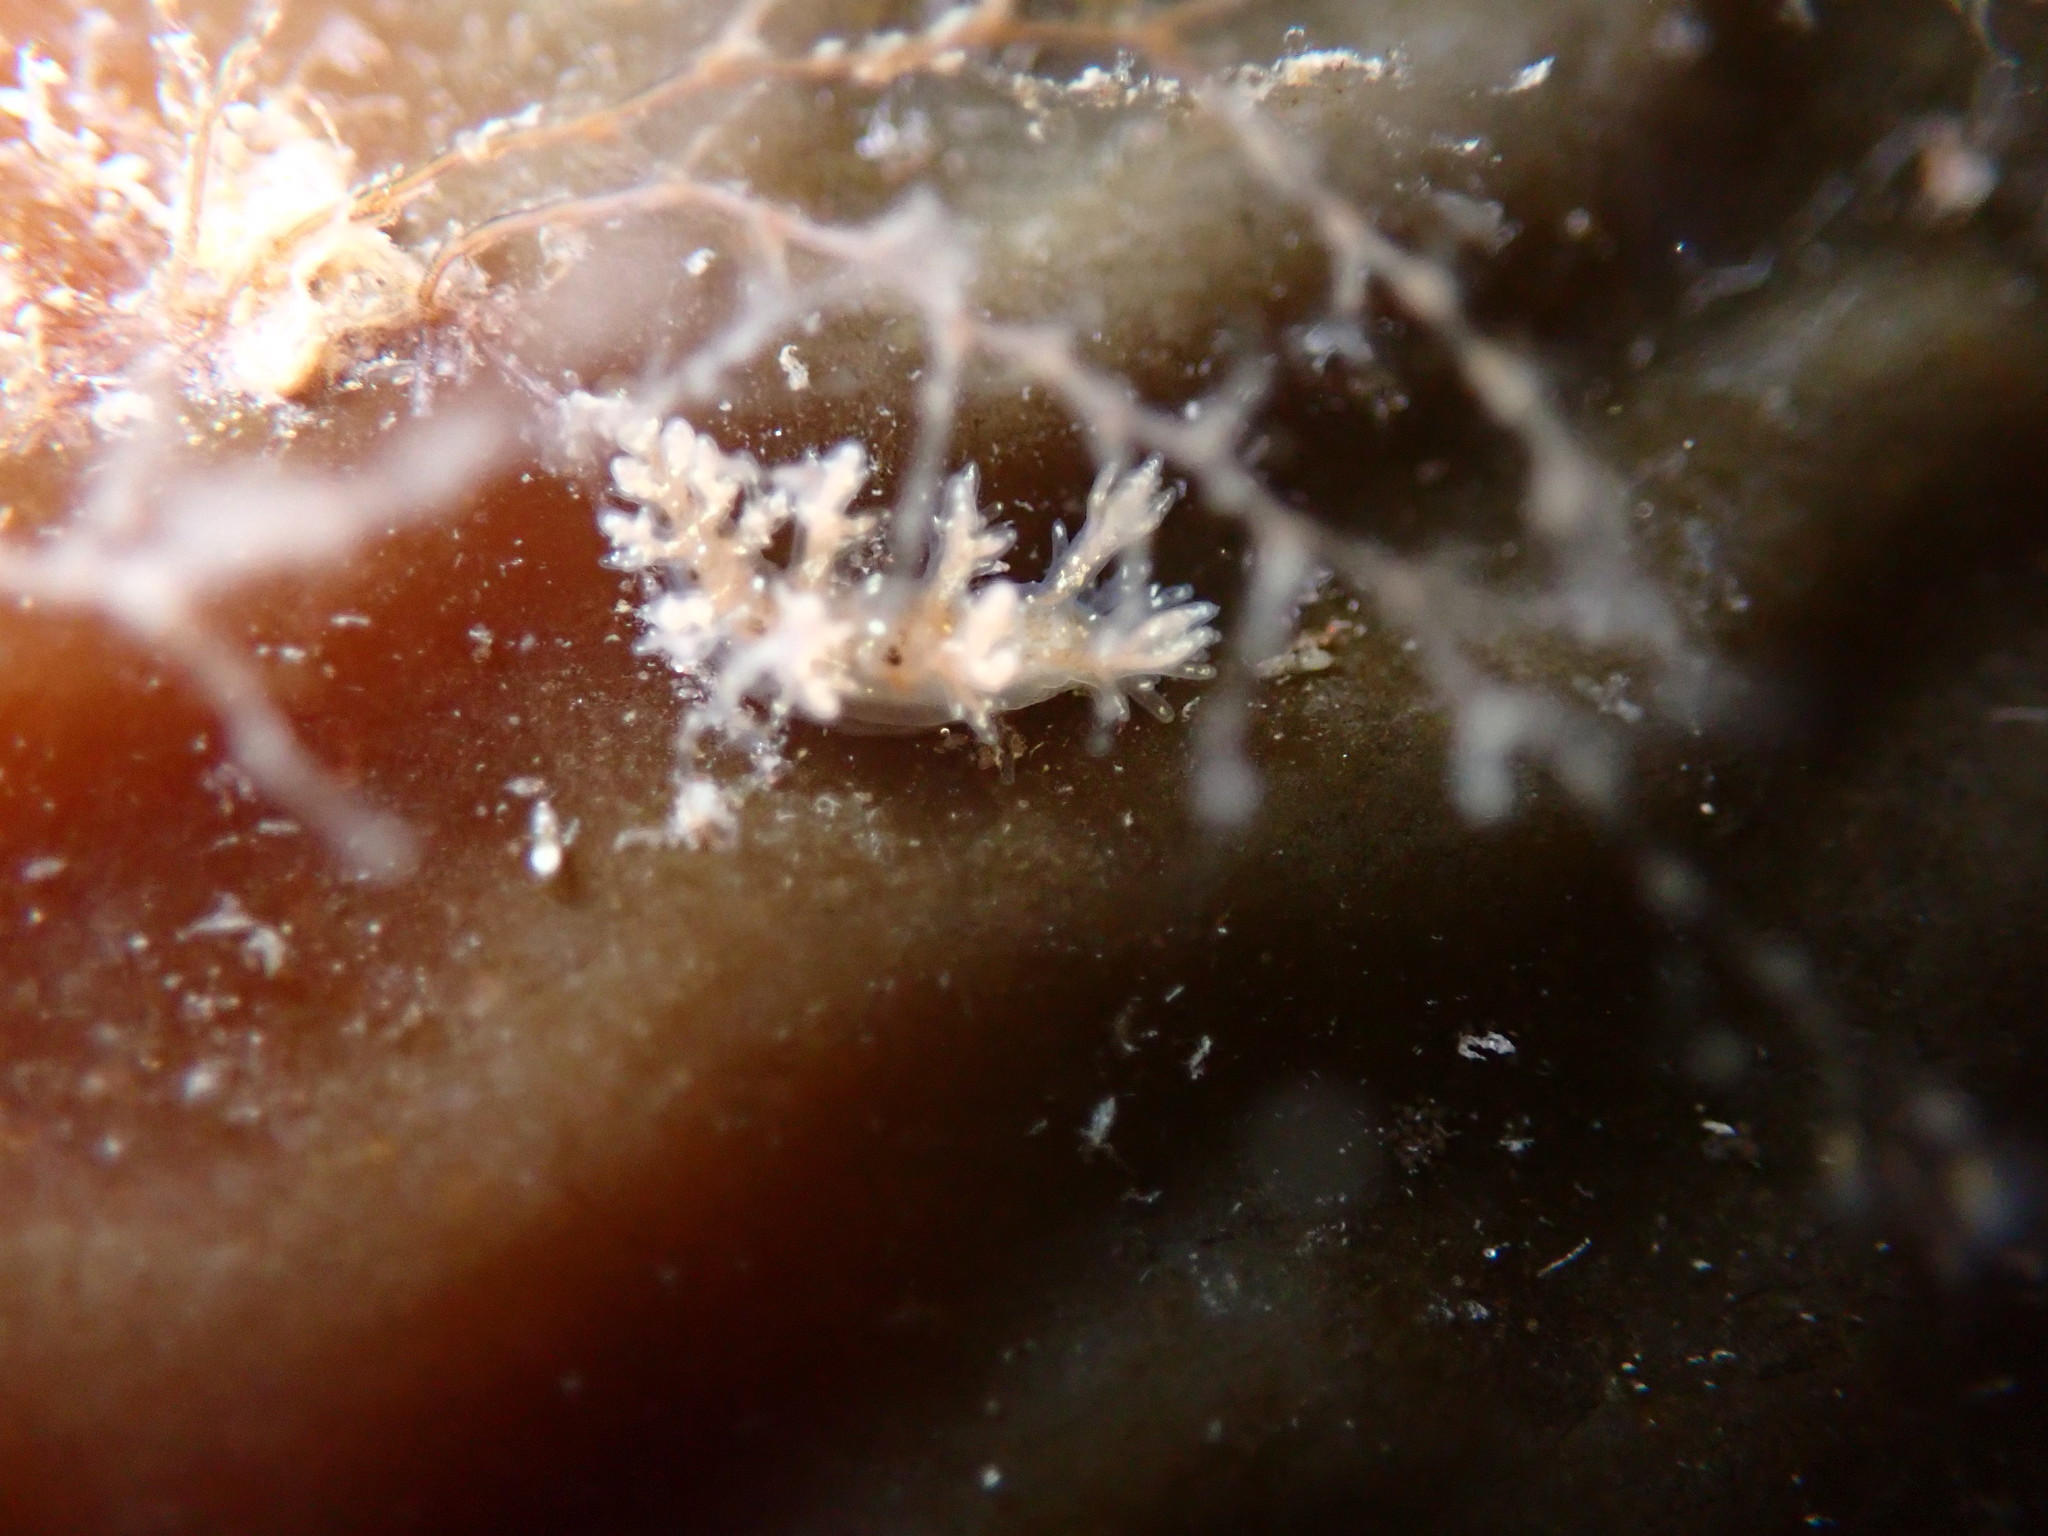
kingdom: Animalia
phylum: Mollusca
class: Gastropoda
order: Nudibranchia
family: Dendronotidae
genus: Dendronotus
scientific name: Dendronotus venustus
